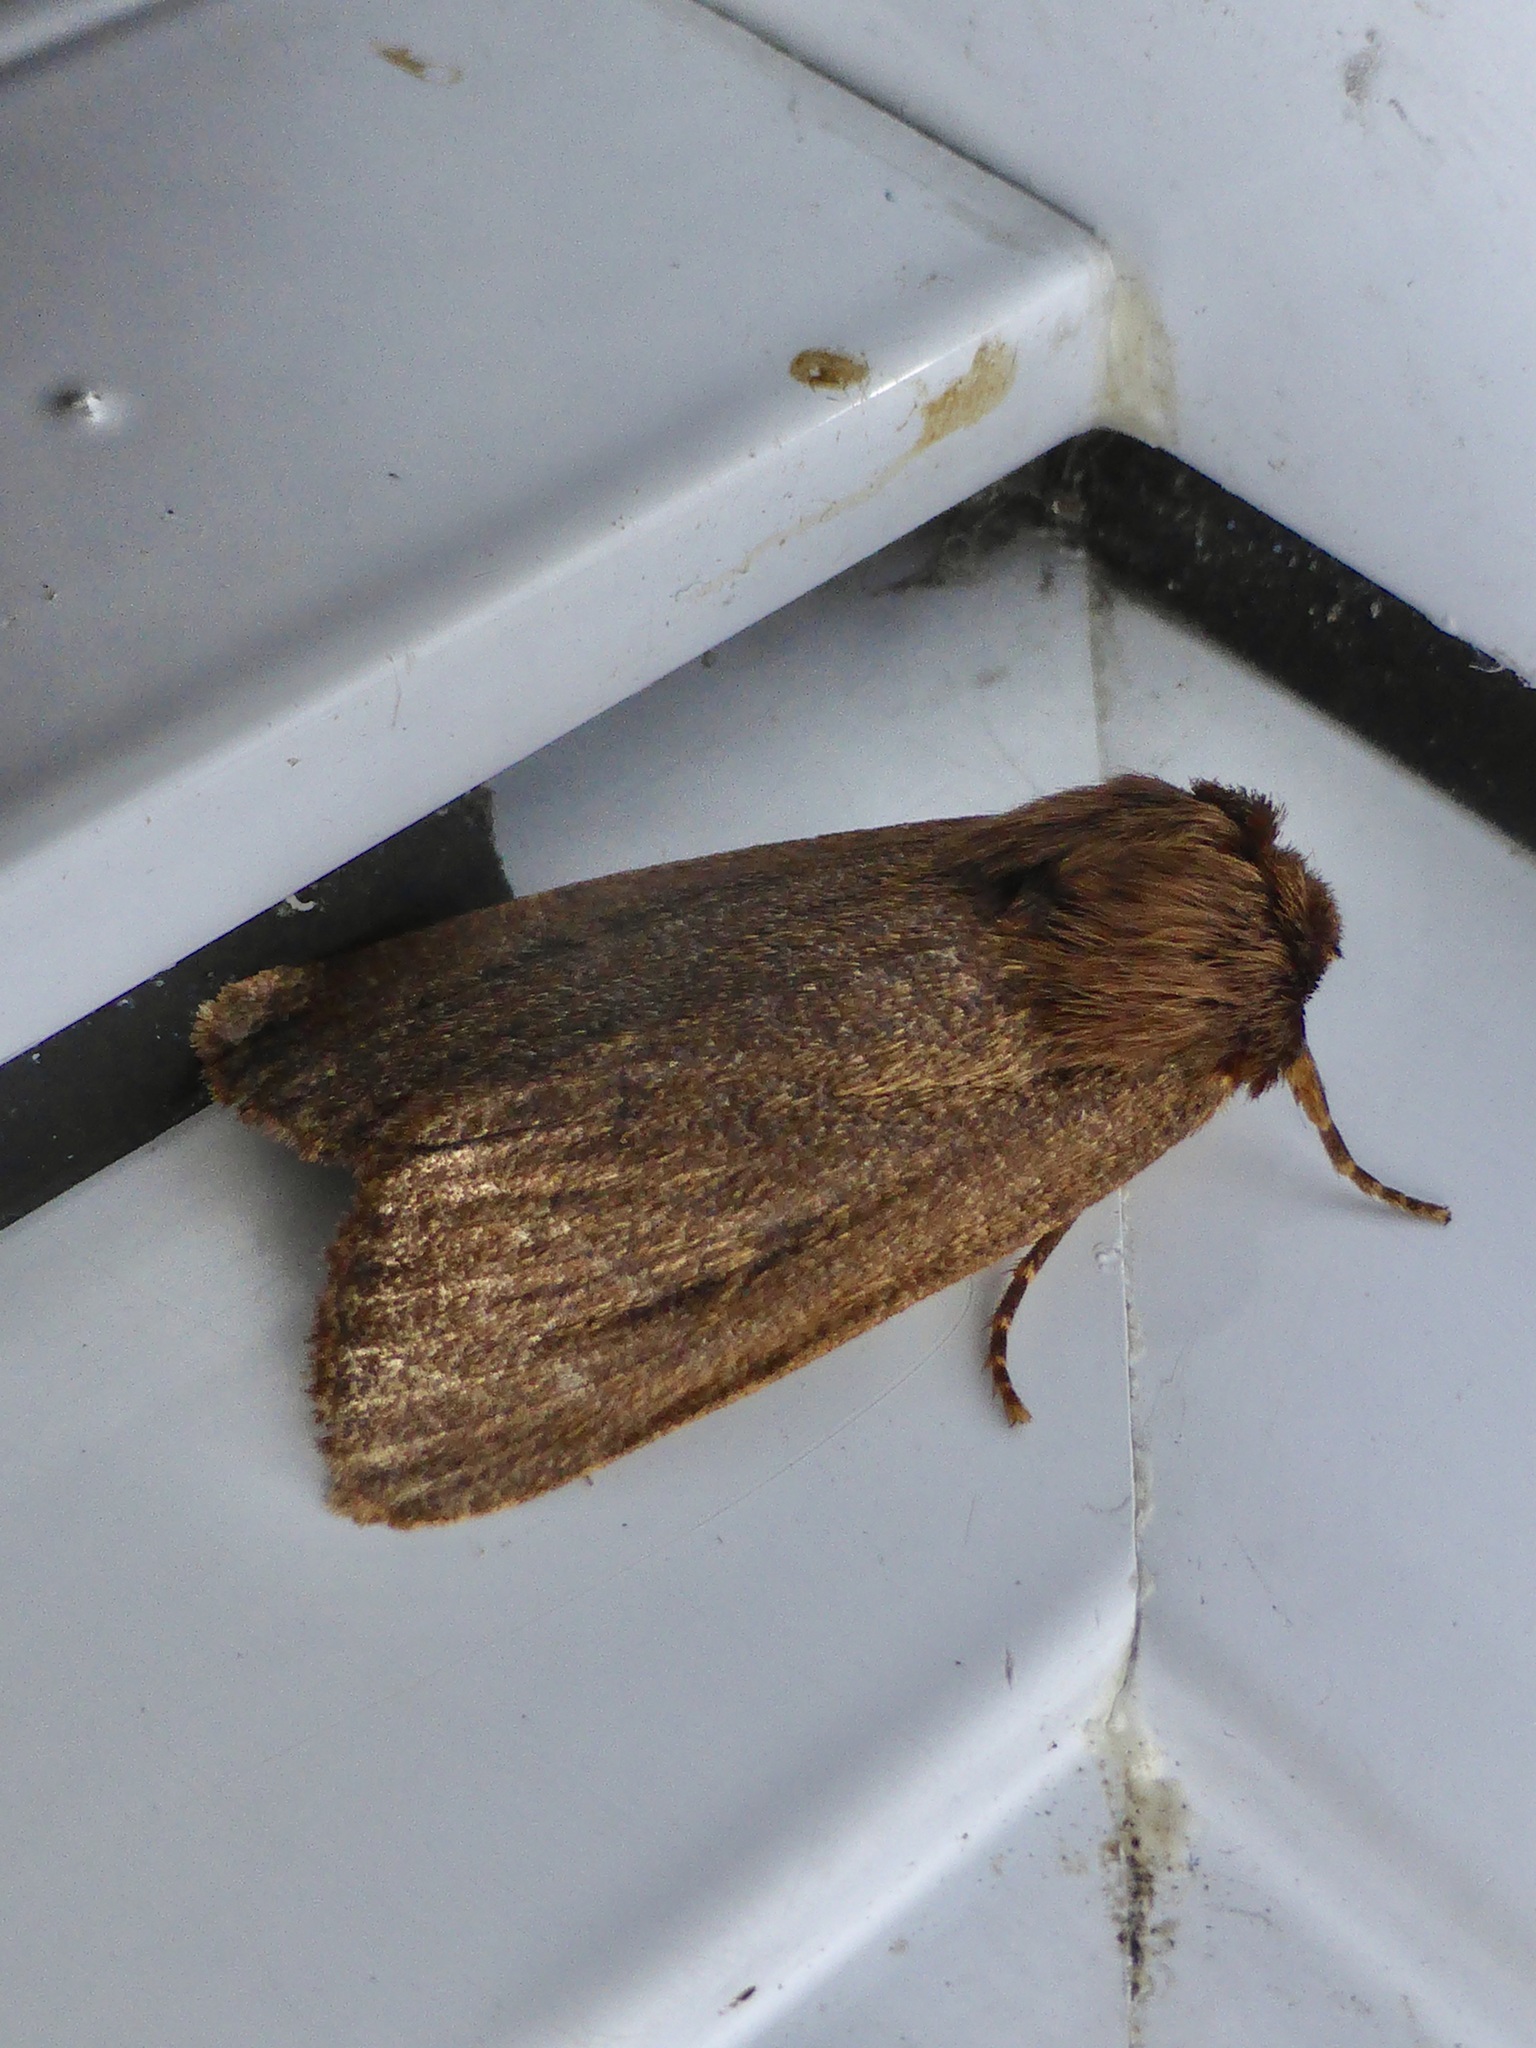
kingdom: Animalia
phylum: Arthropoda
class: Insecta
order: Lepidoptera
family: Noctuidae
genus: Bityla
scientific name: Bityla defigurata
